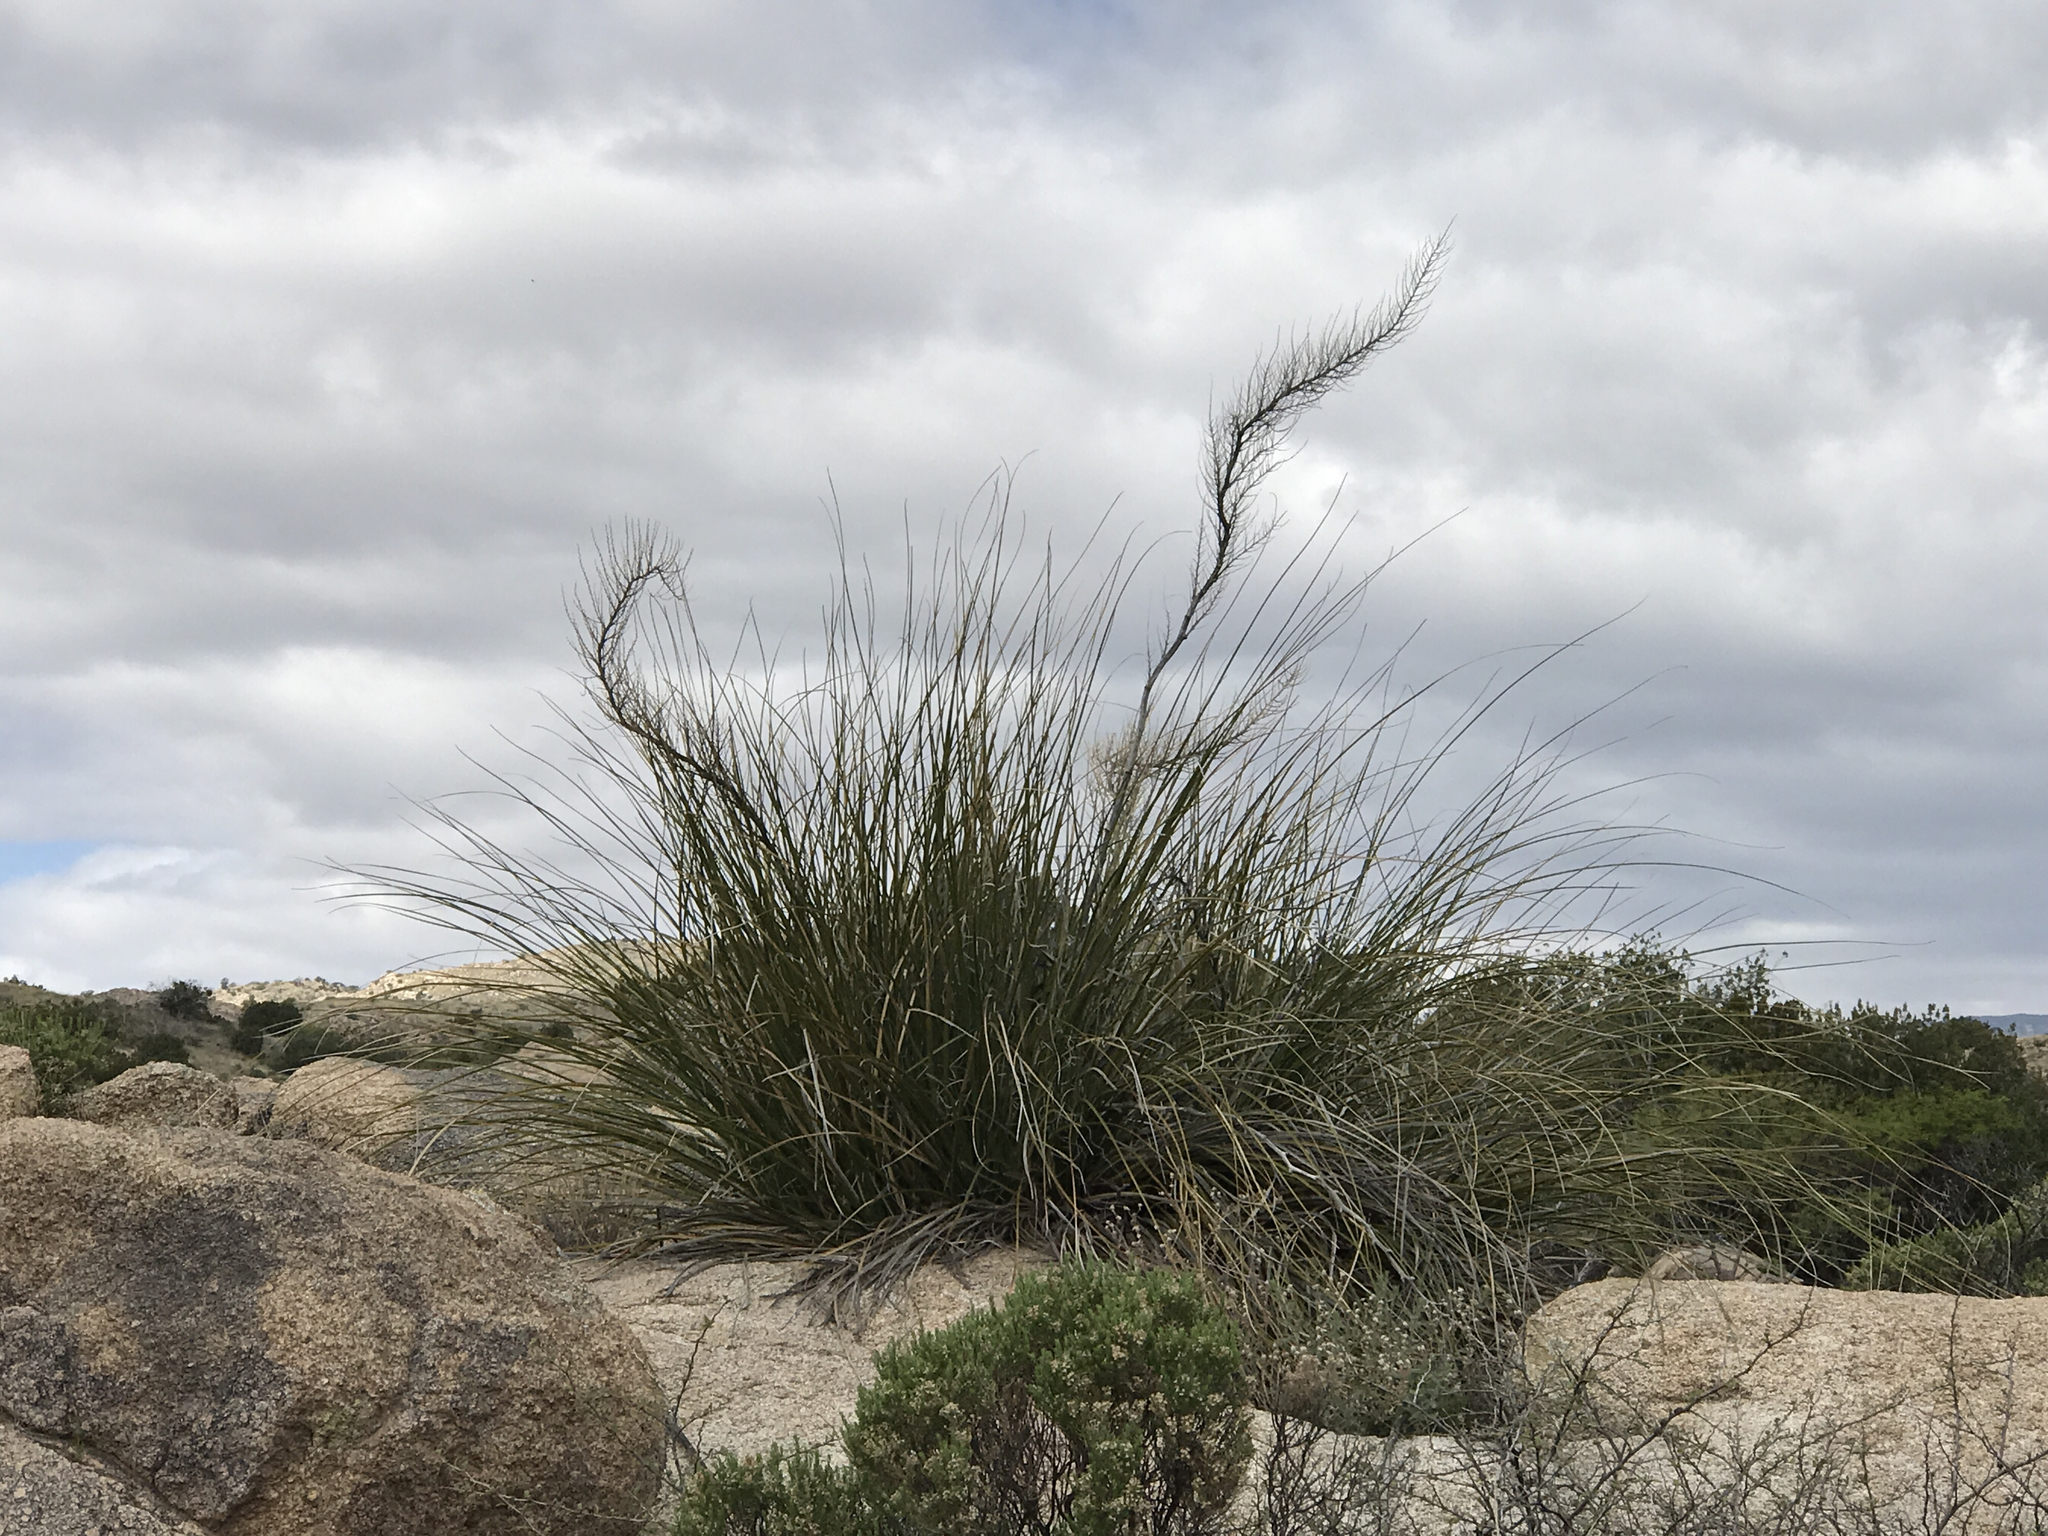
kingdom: Plantae
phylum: Tracheophyta
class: Liliopsida
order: Asparagales
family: Asparagaceae
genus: Nolina
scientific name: Nolina microcarpa
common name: Bear-grass
